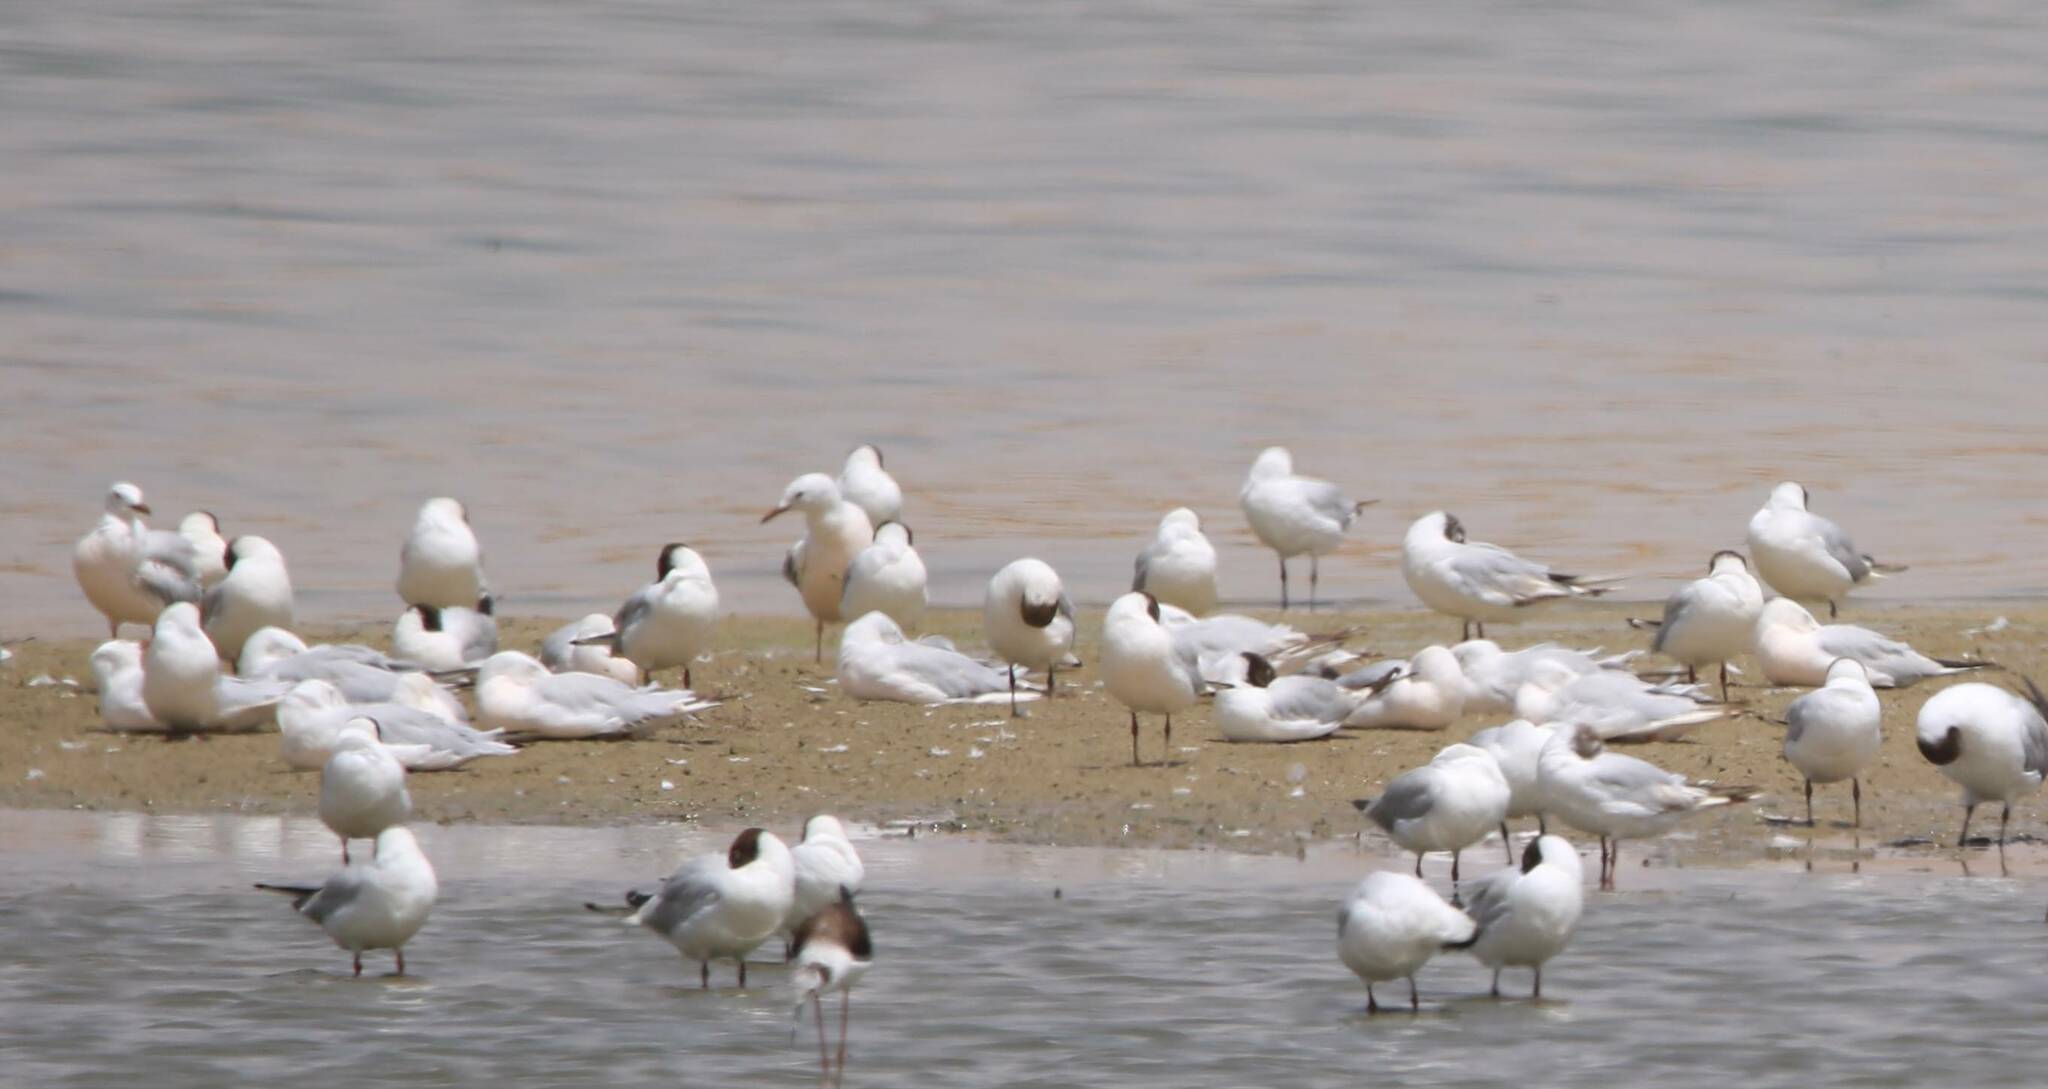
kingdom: Animalia
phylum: Chordata
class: Aves
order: Charadriiformes
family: Laridae
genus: Chroicocephalus
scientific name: Chroicocephalus ridibundus
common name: Black-headed gull
